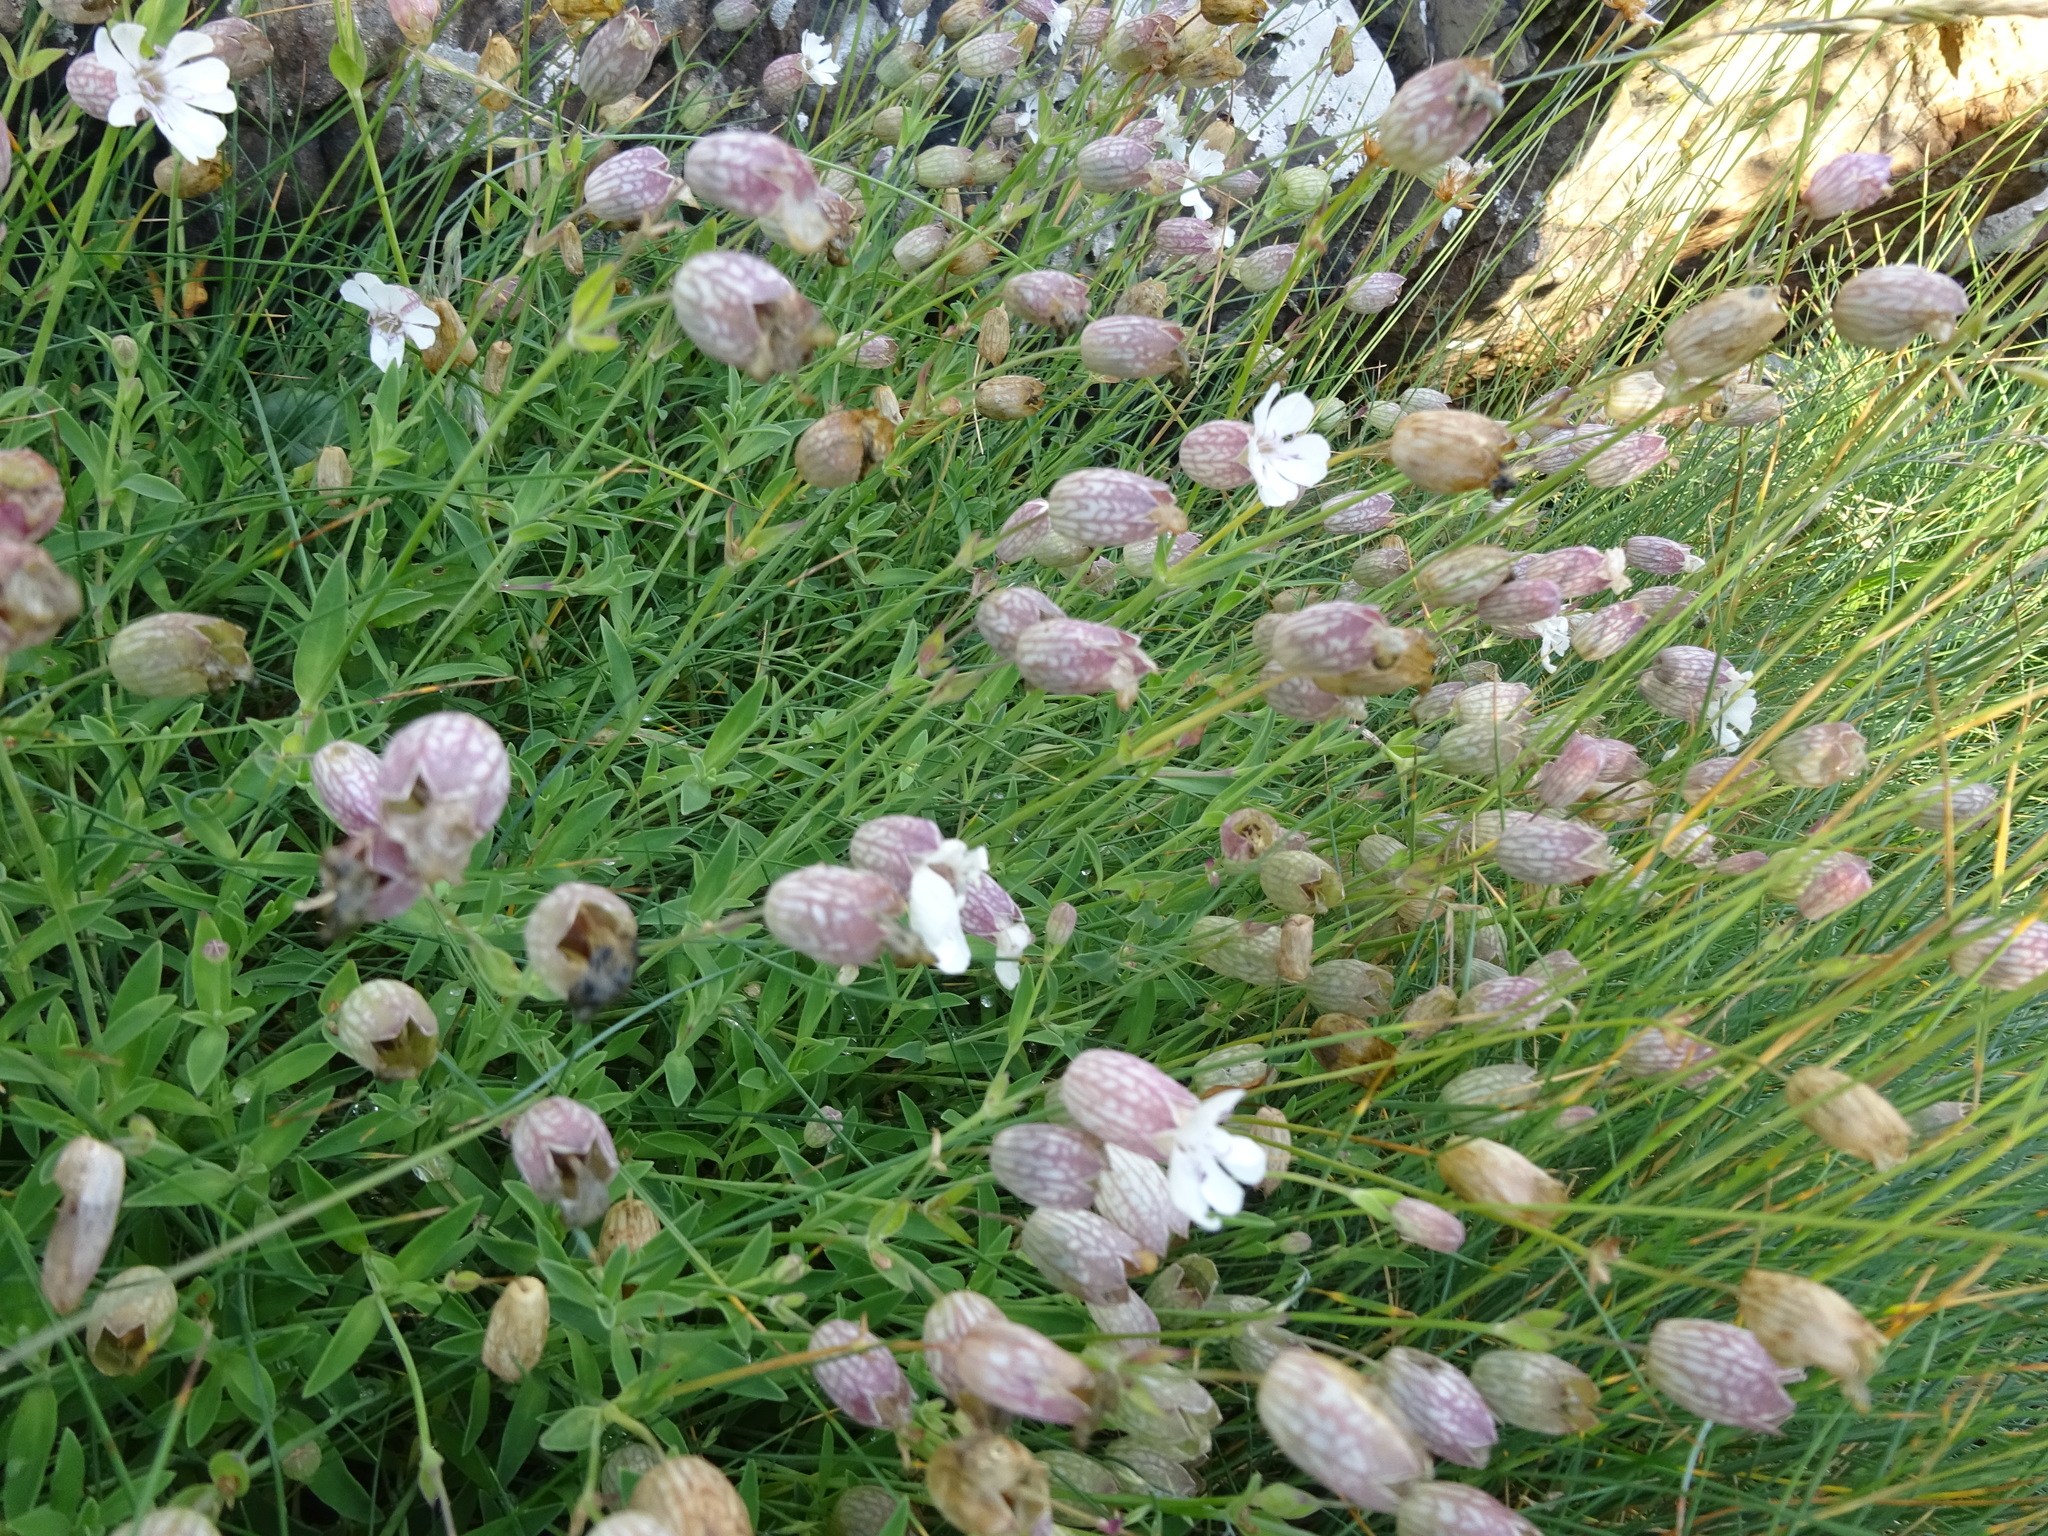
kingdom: Plantae
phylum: Tracheophyta
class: Magnoliopsida
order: Caryophyllales
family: Caryophyllaceae
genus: Silene
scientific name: Silene uniflora
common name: Sea campion
